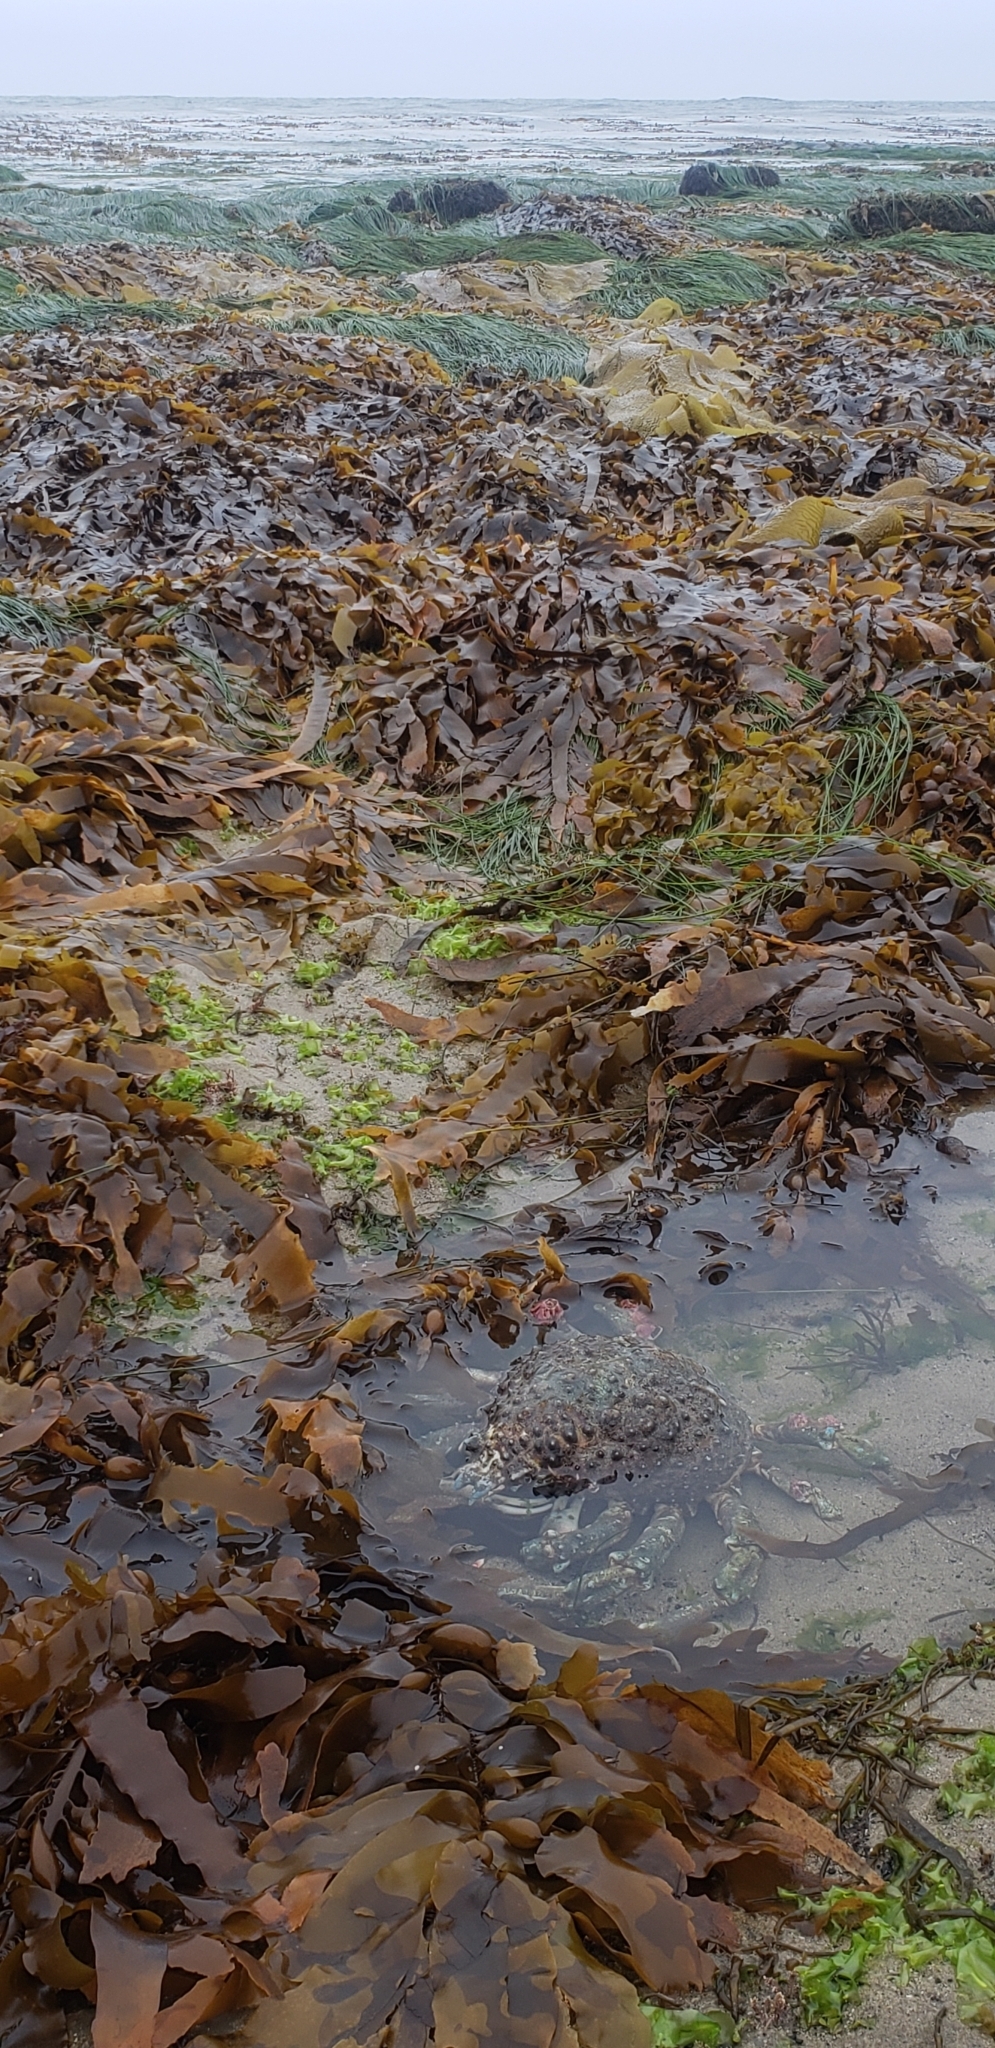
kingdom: Animalia
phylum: Arthropoda
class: Malacostraca
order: Decapoda
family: Epialtidae
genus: Loxorhynchus
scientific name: Loxorhynchus grandis
